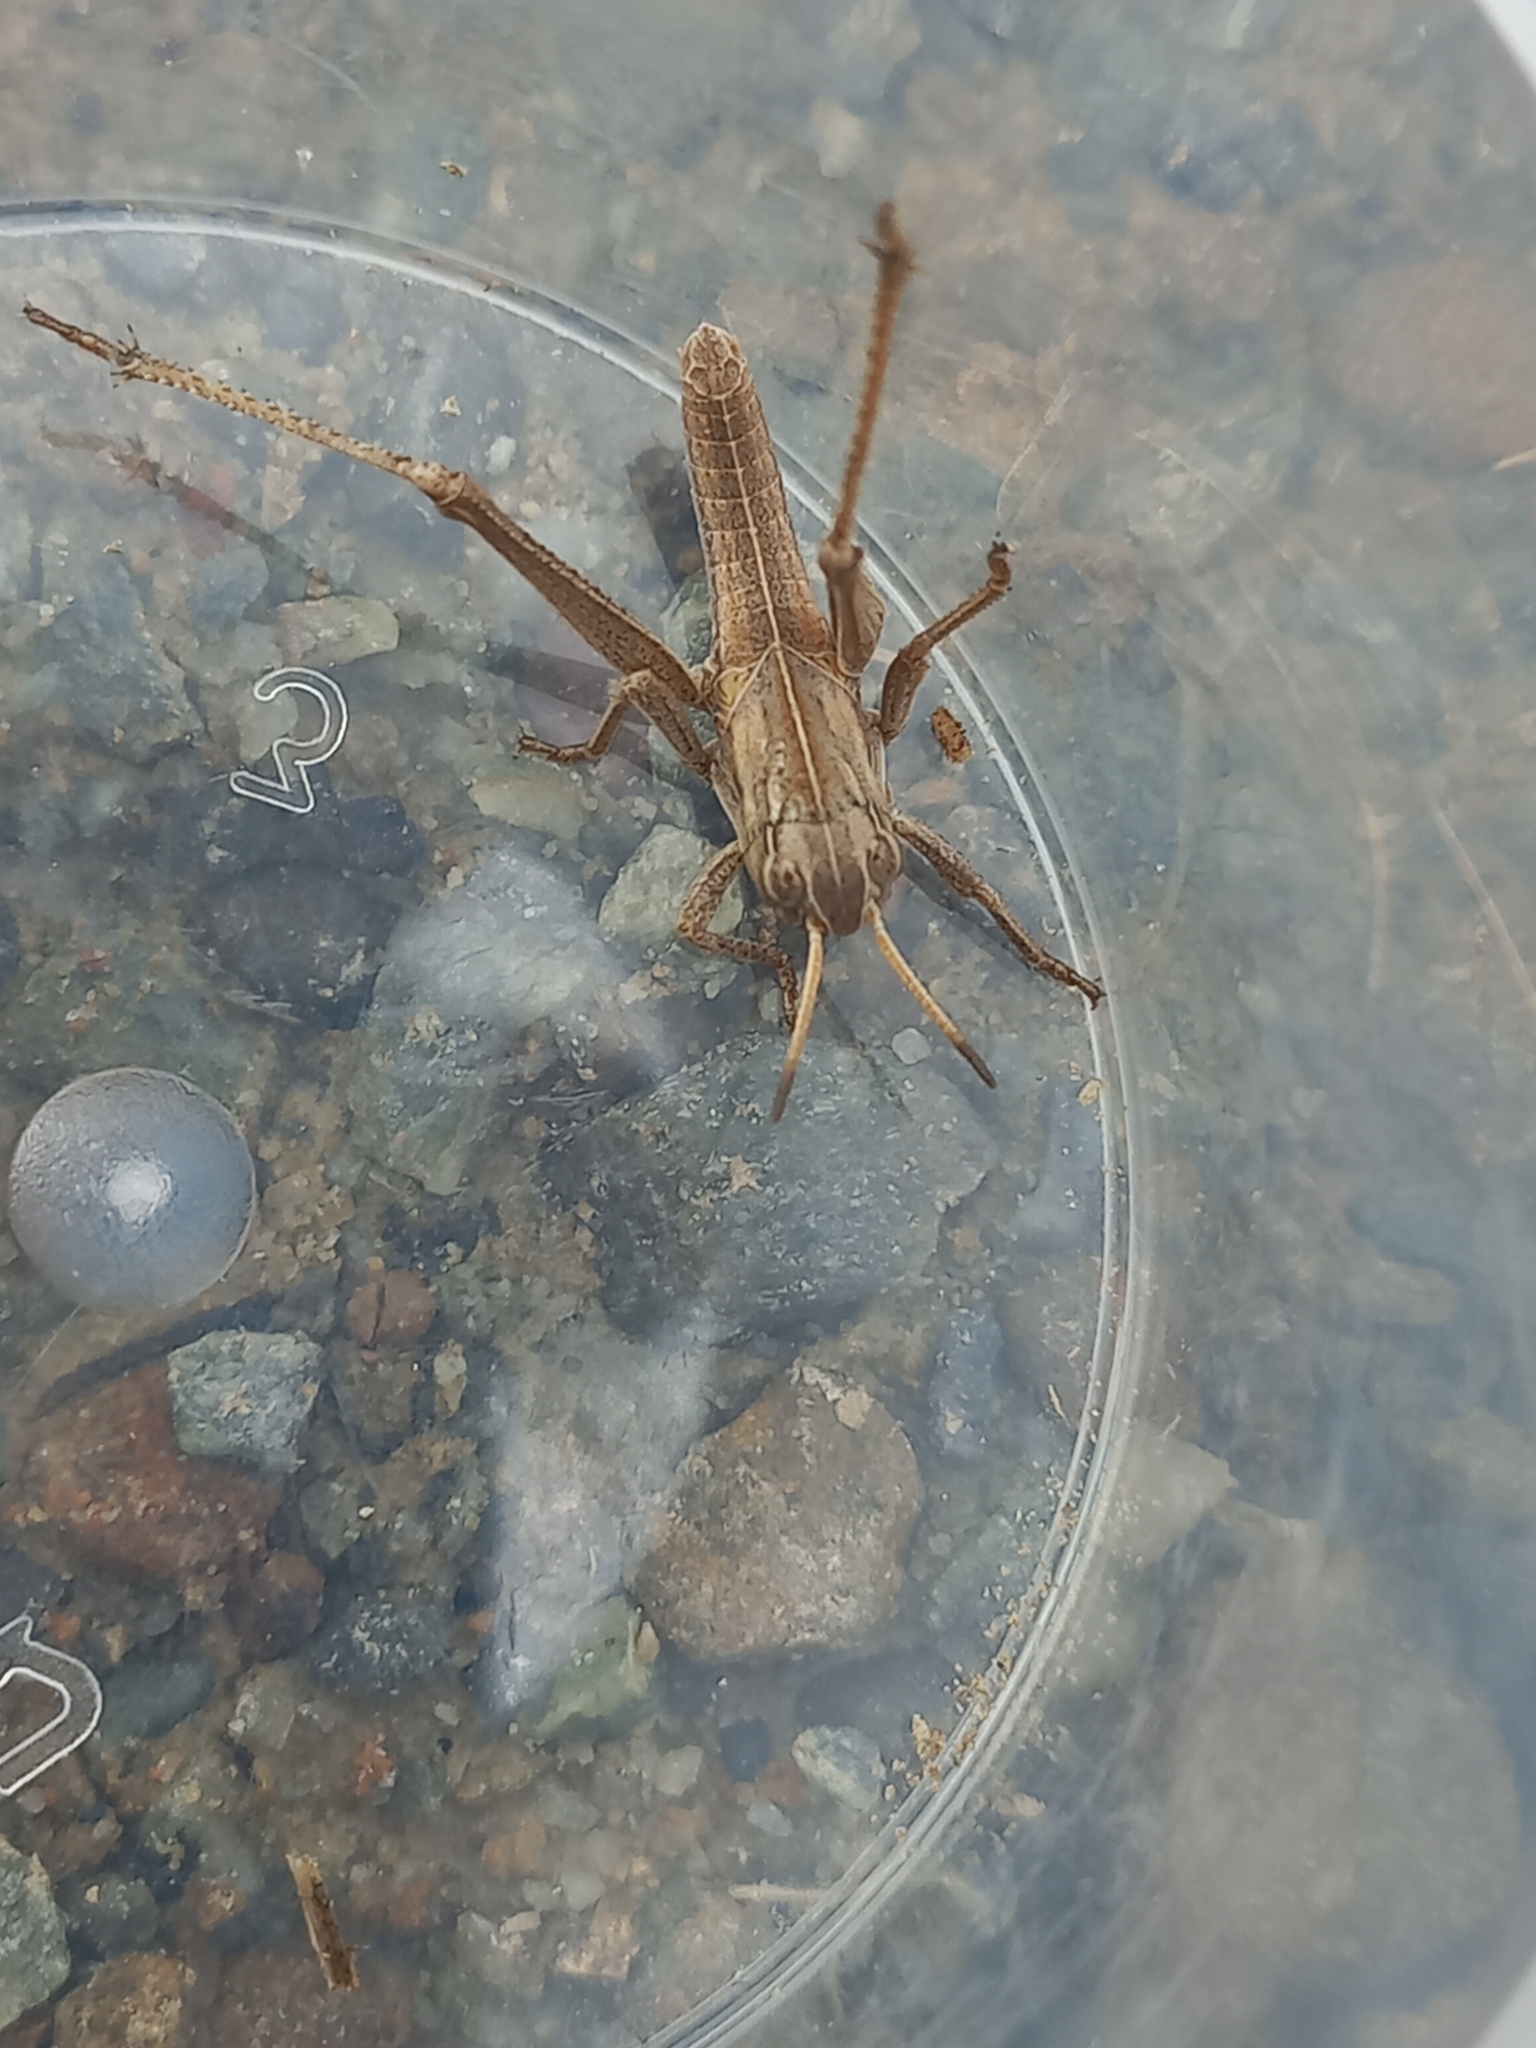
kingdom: Animalia
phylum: Arthropoda
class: Insecta
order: Orthoptera
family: Acrididae
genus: Locusta
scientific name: Locusta migratoria
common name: Migratory locust
